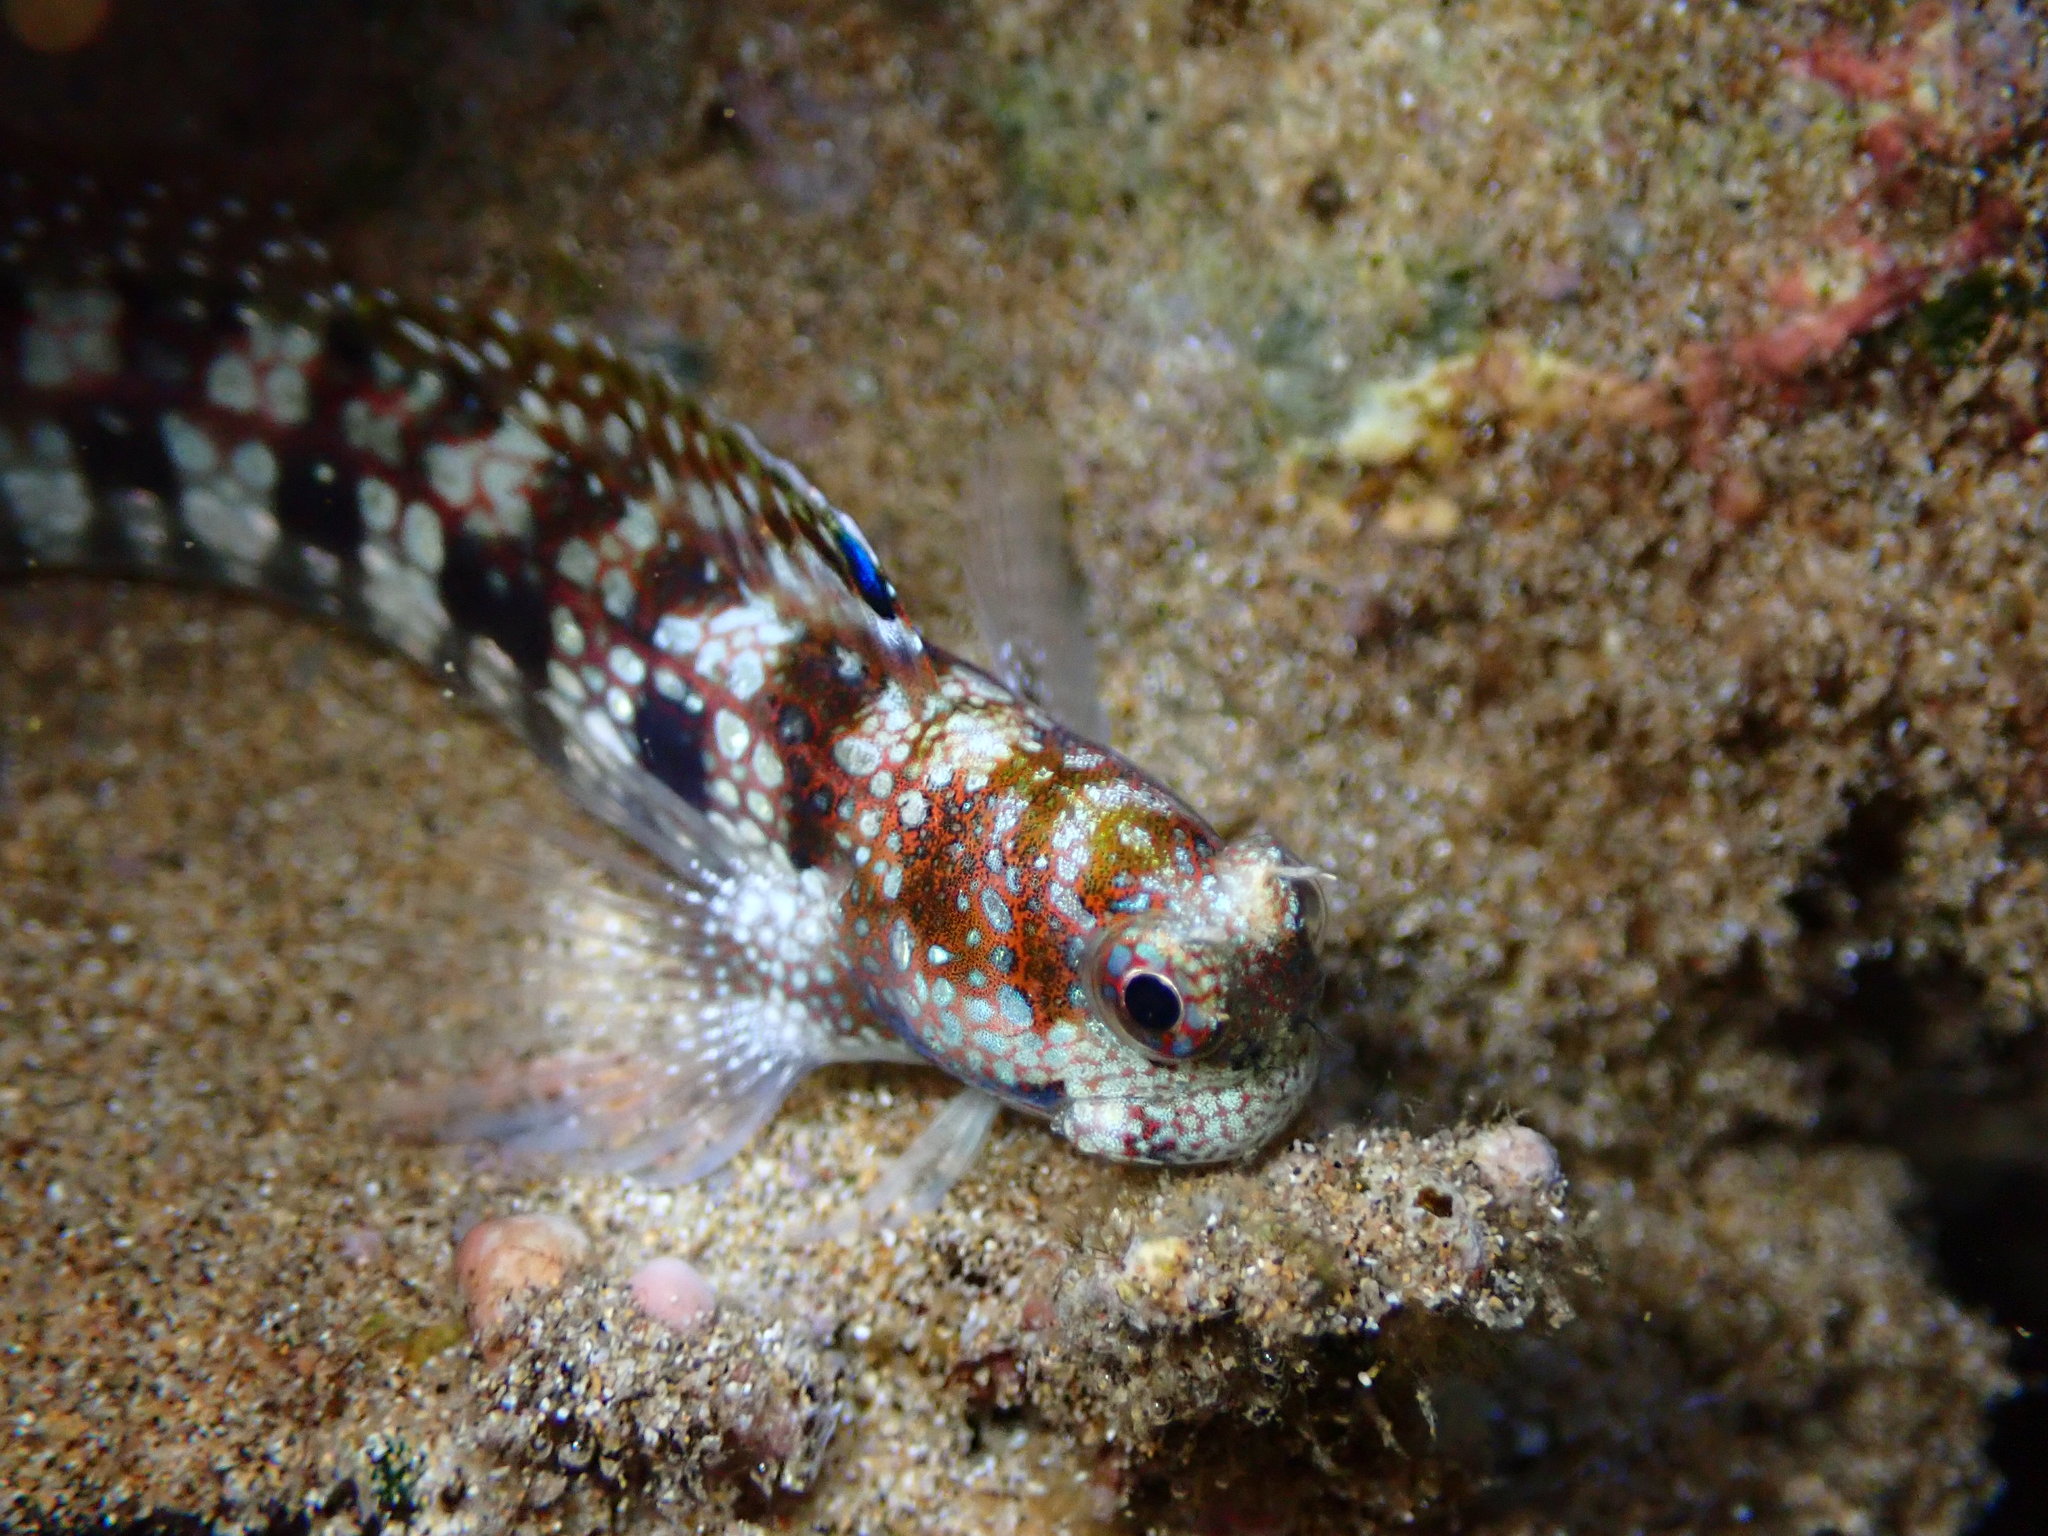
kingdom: Animalia
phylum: Chordata
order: Perciformes
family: Blenniidae
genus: Blenniella
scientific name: Blenniella gibbifrons
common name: Picture rockskipper
